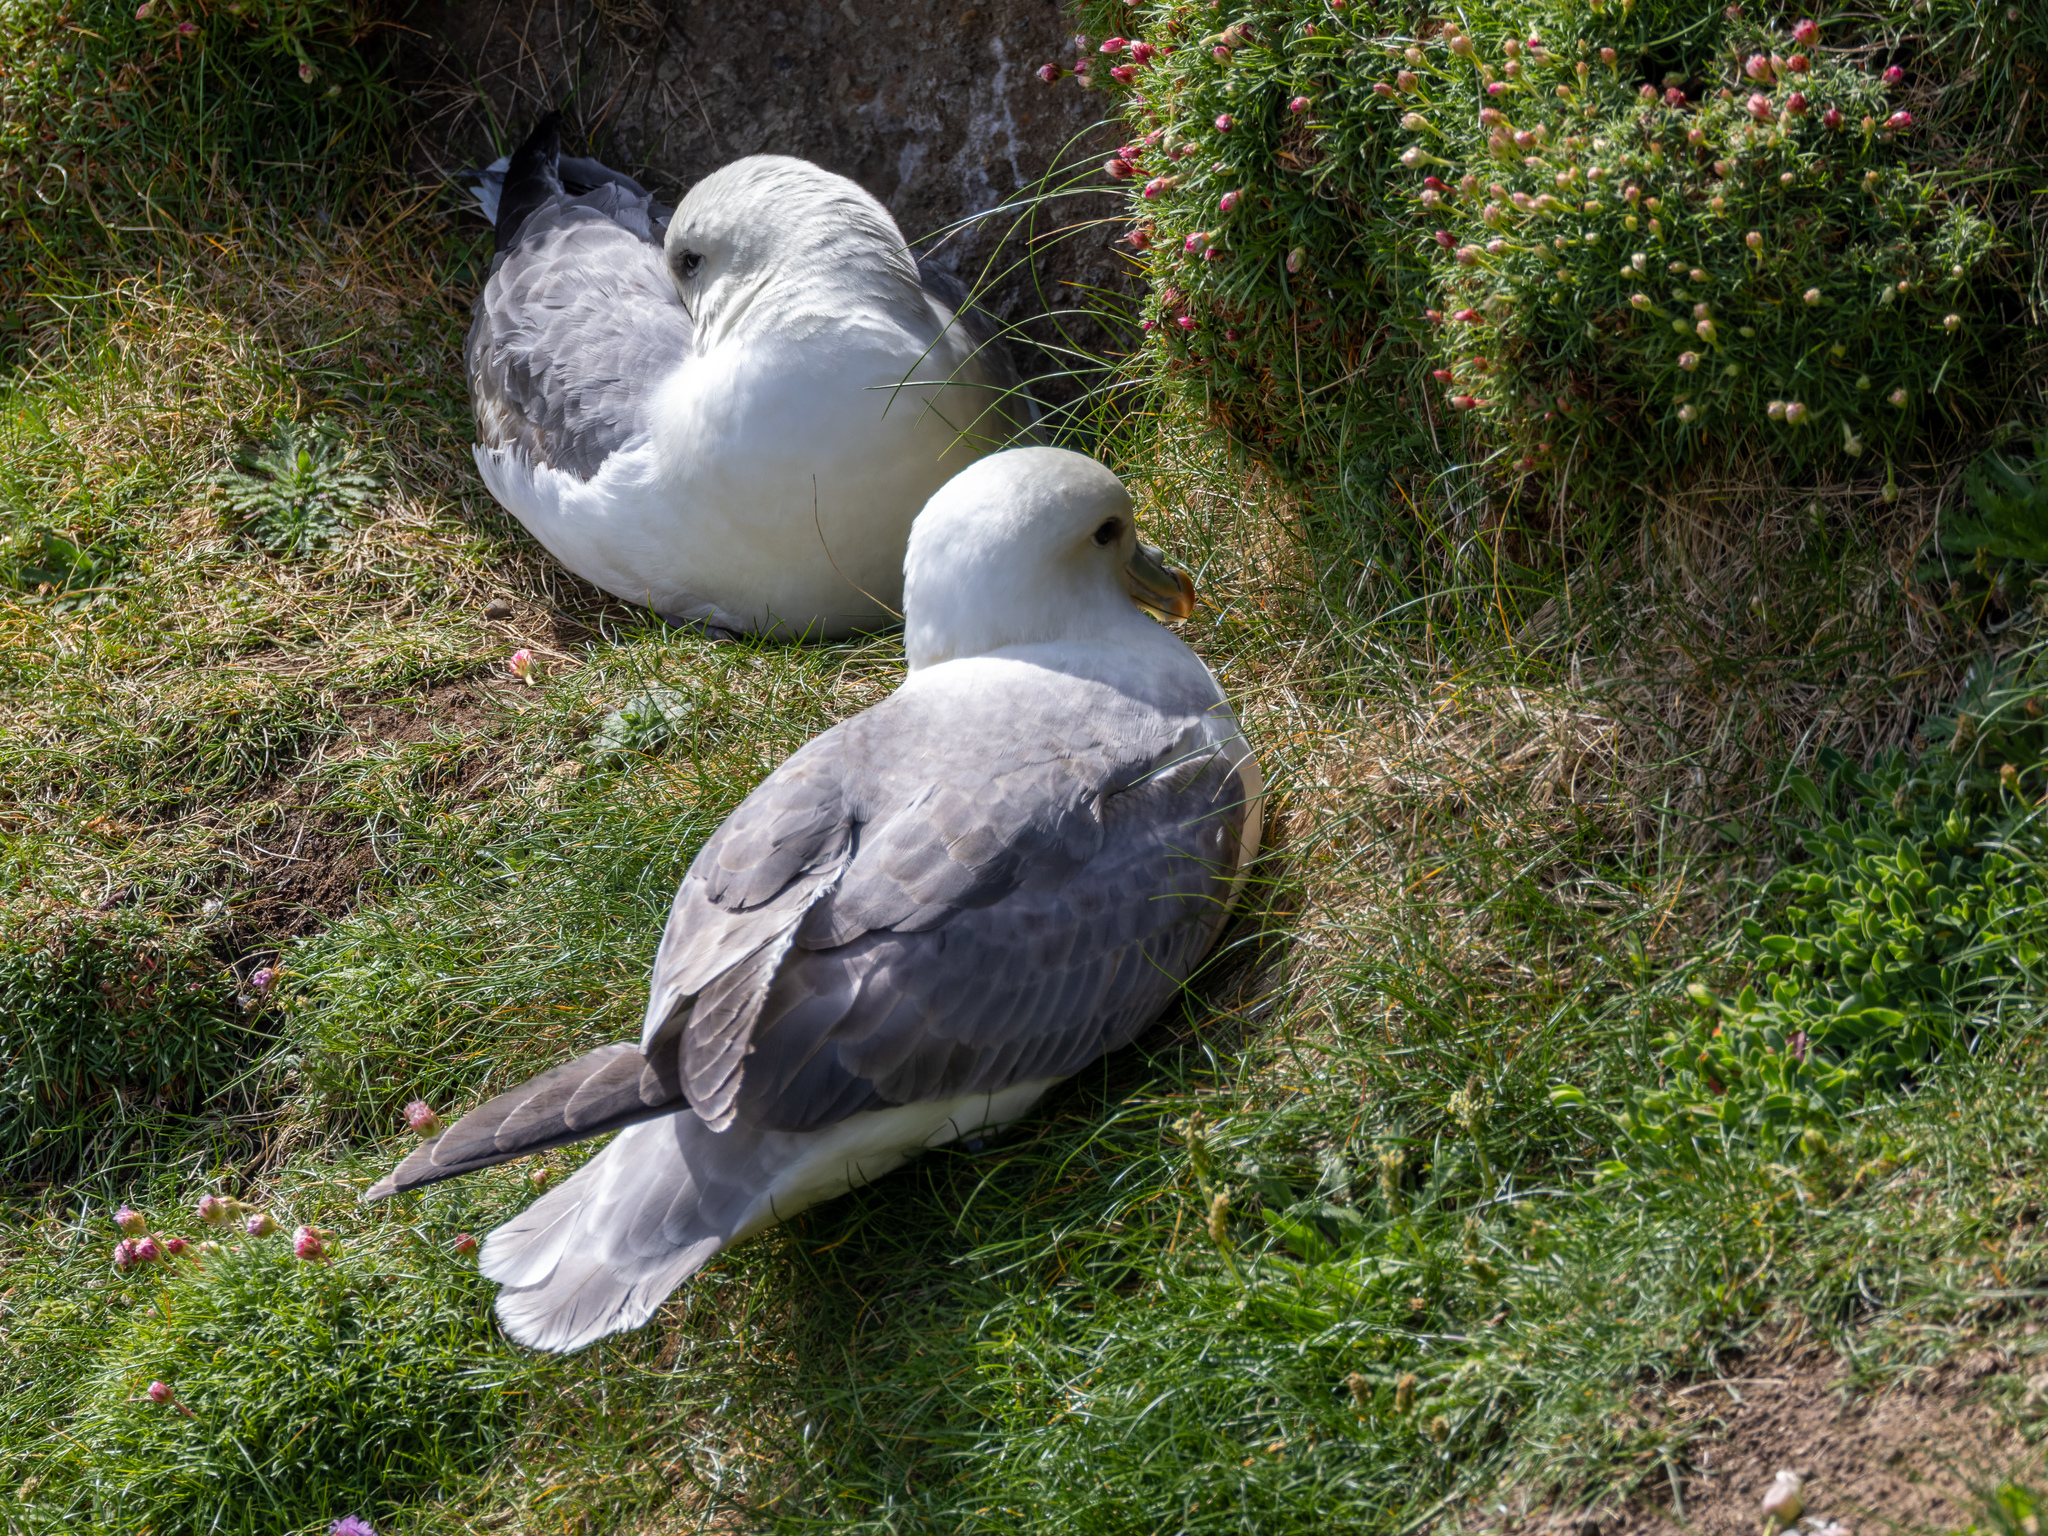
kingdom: Animalia
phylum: Chordata
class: Aves
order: Procellariiformes
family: Procellariidae
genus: Fulmarus
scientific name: Fulmarus glacialis
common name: Northern fulmar
